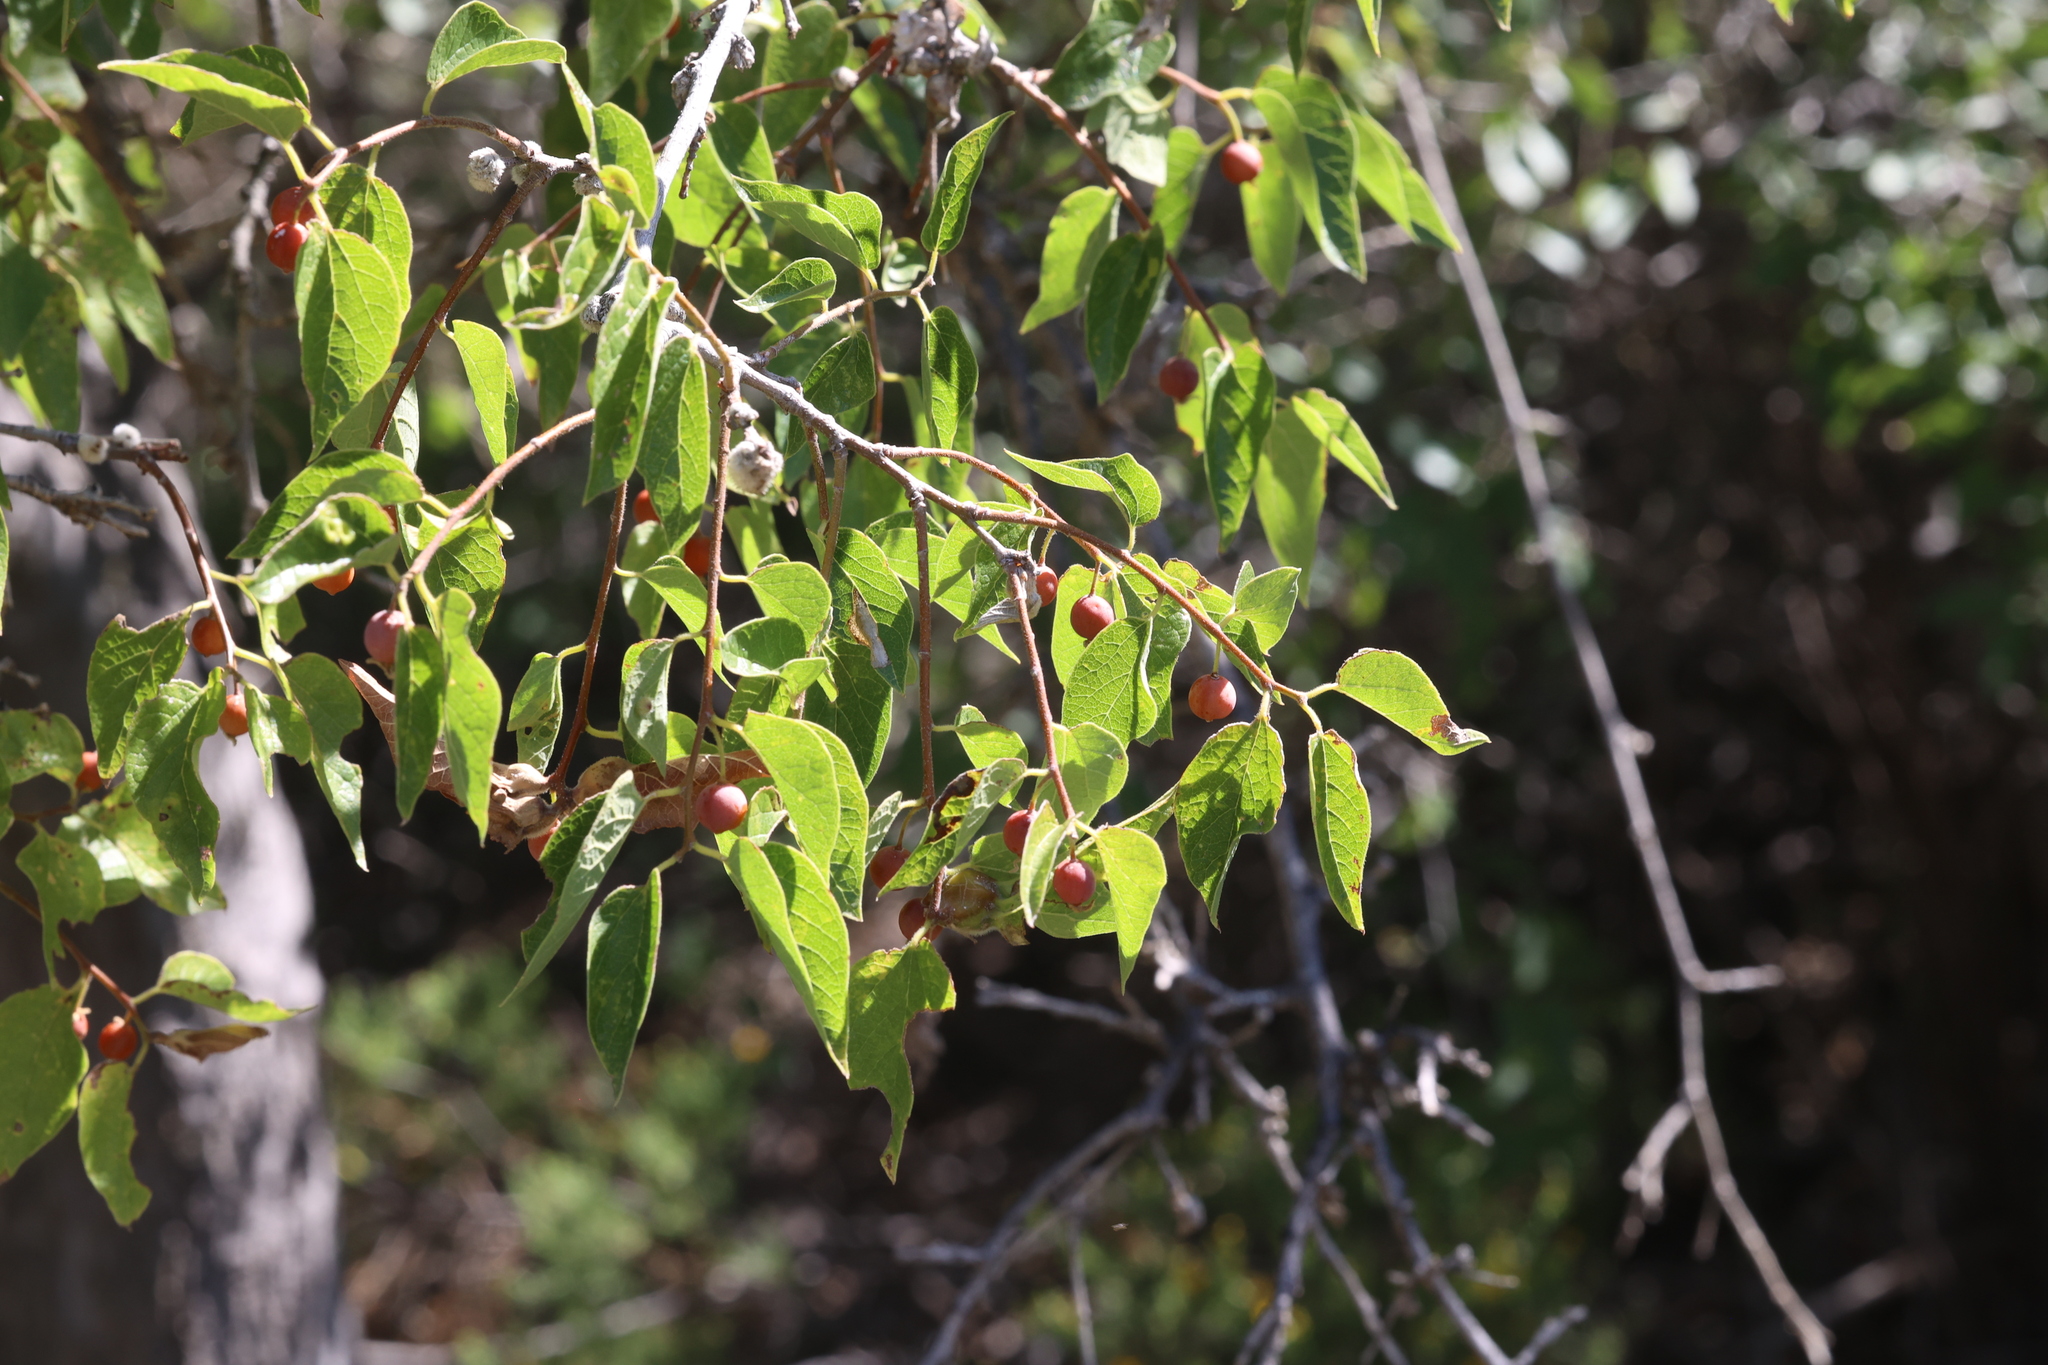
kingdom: Plantae
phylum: Tracheophyta
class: Magnoliopsida
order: Rosales
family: Cannabaceae
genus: Celtis
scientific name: Celtis reticulata
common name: Netleaf hackberry
